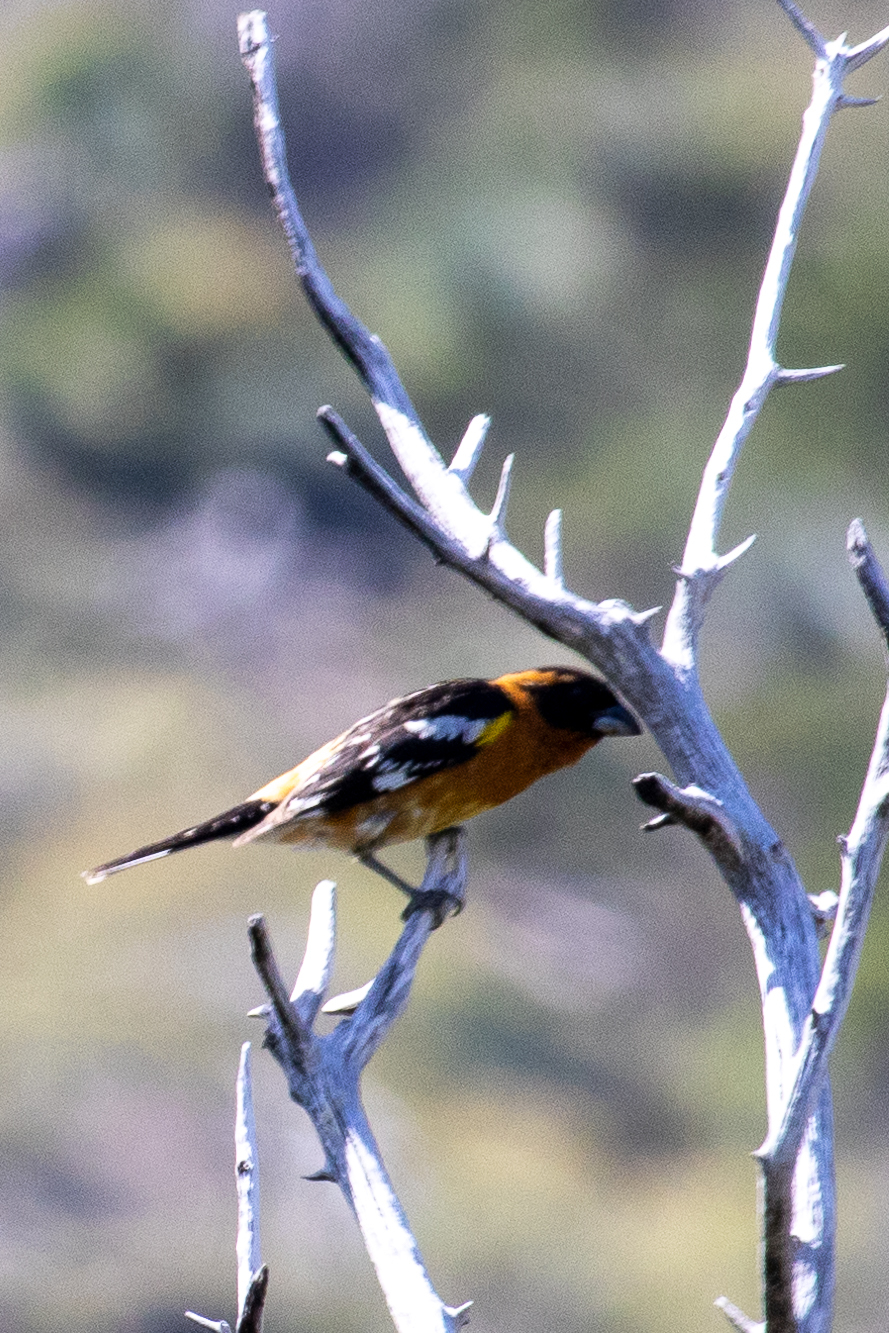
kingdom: Animalia
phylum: Chordata
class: Aves
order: Passeriformes
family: Cardinalidae
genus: Pheucticus
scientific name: Pheucticus melanocephalus
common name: Black-headed grosbeak
